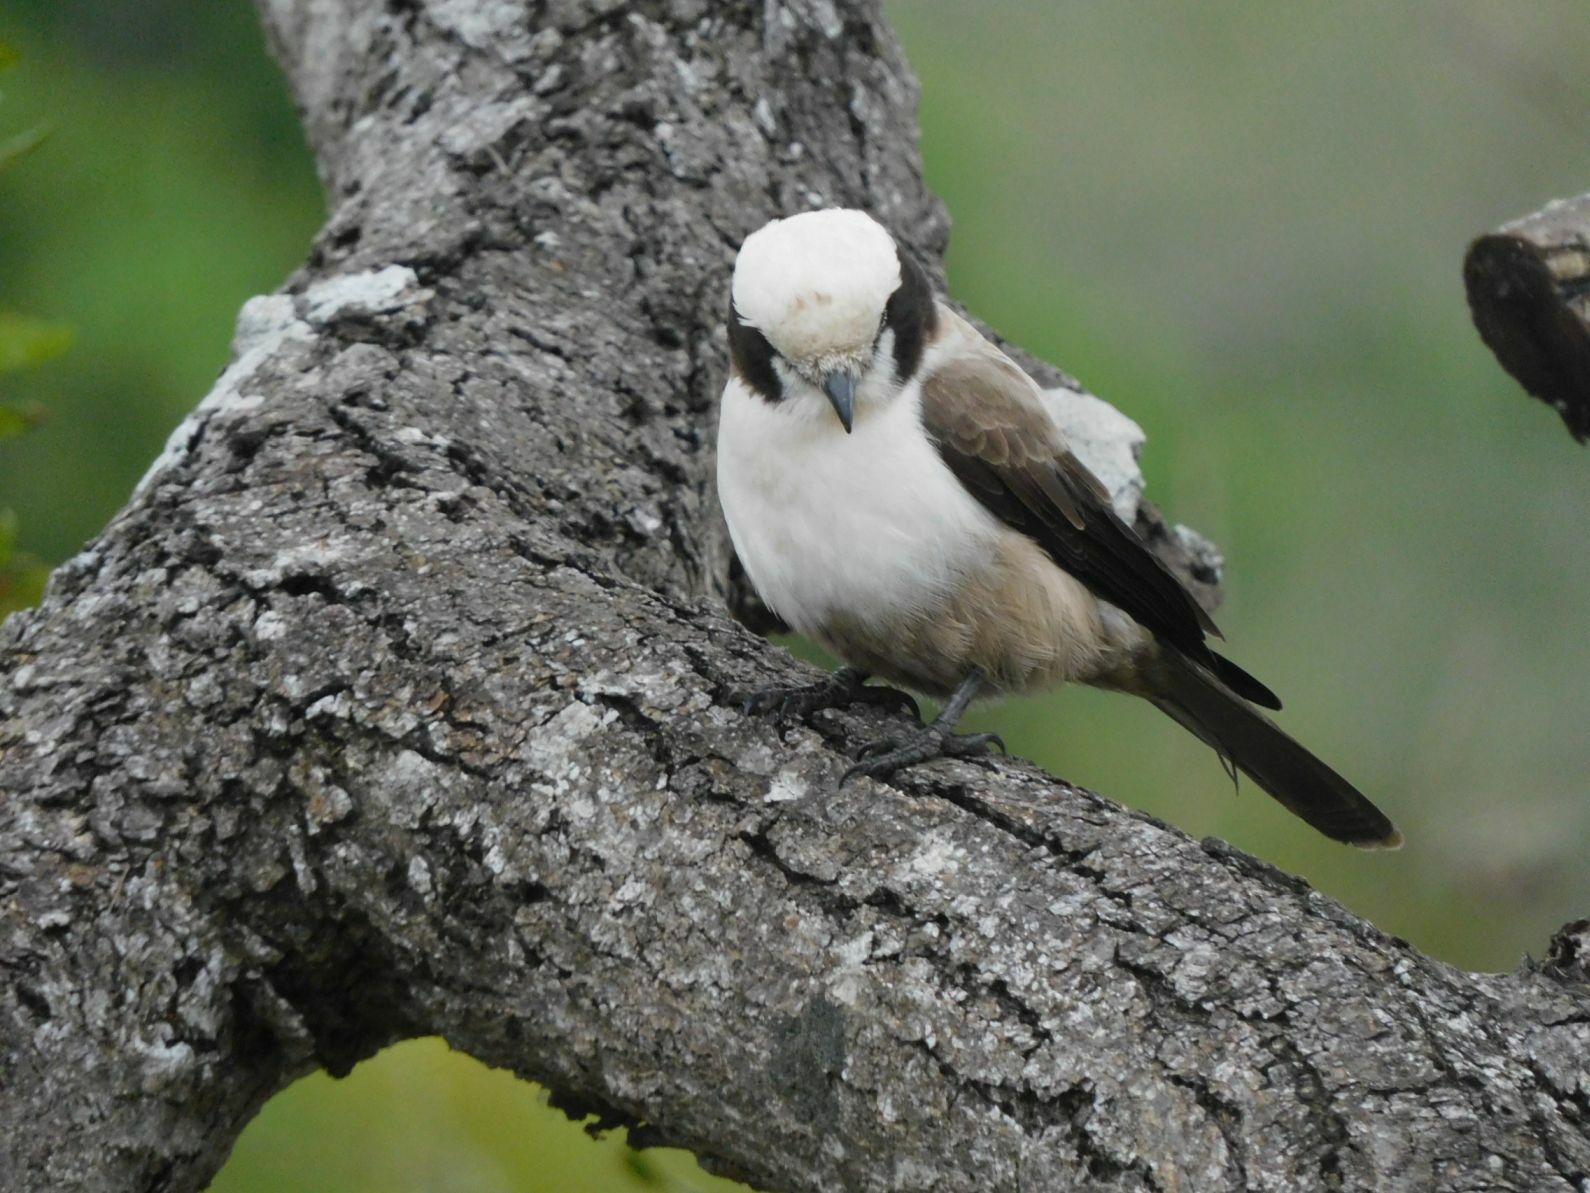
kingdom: Animalia
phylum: Chordata
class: Aves
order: Passeriformes
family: Laniidae
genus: Eurocephalus
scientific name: Eurocephalus anguitimens
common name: Southern white-crowned shrike
